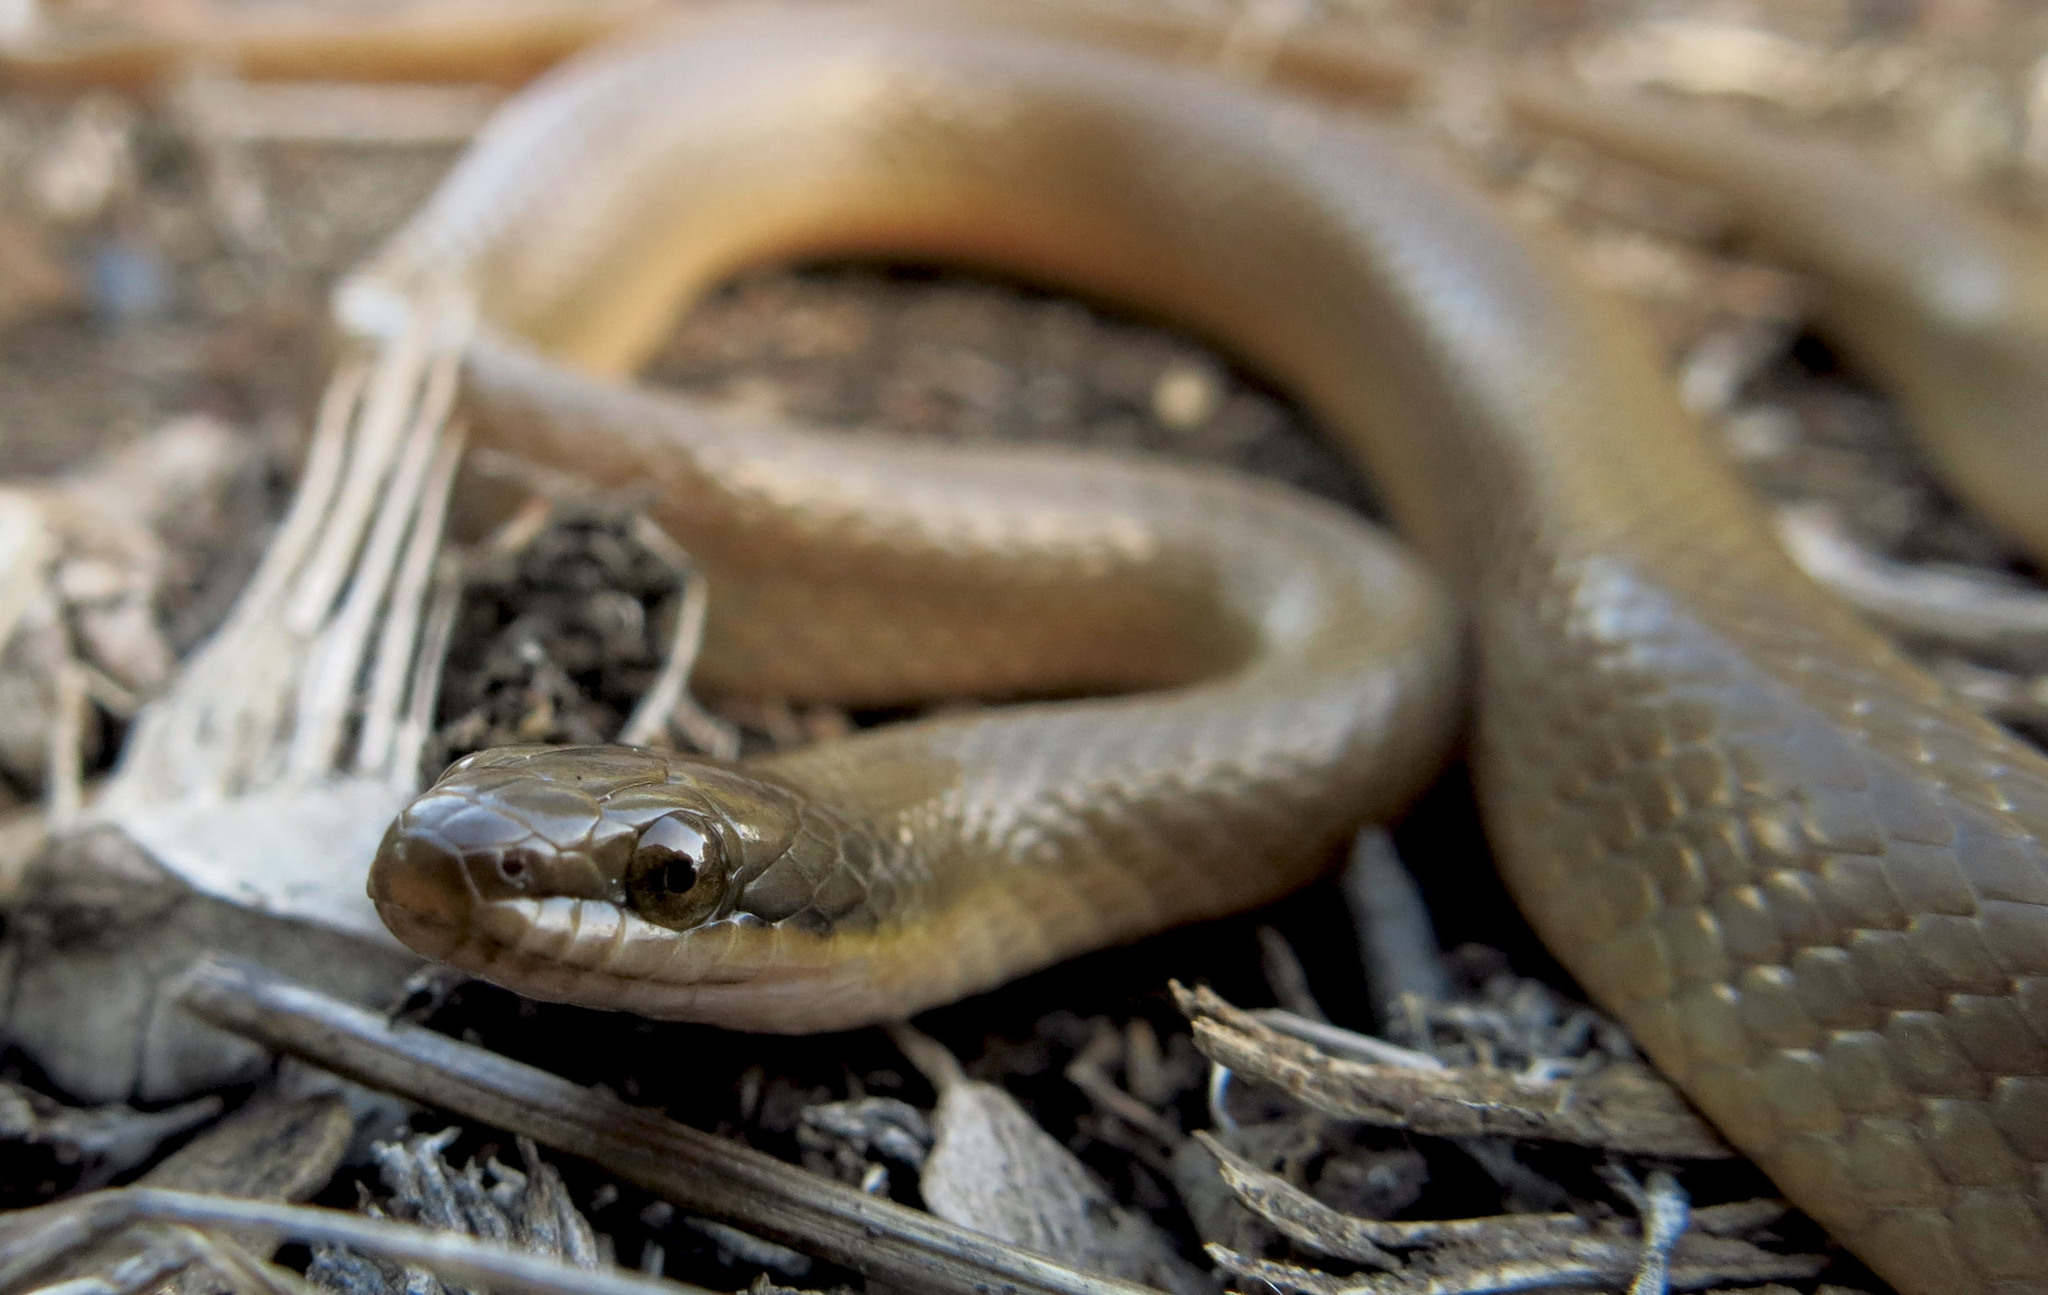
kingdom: Animalia
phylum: Chordata
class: Squamata
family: Lamprophiidae
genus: Lycodonomorphus
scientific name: Lycodonomorphus rufulus
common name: Brown water snake
